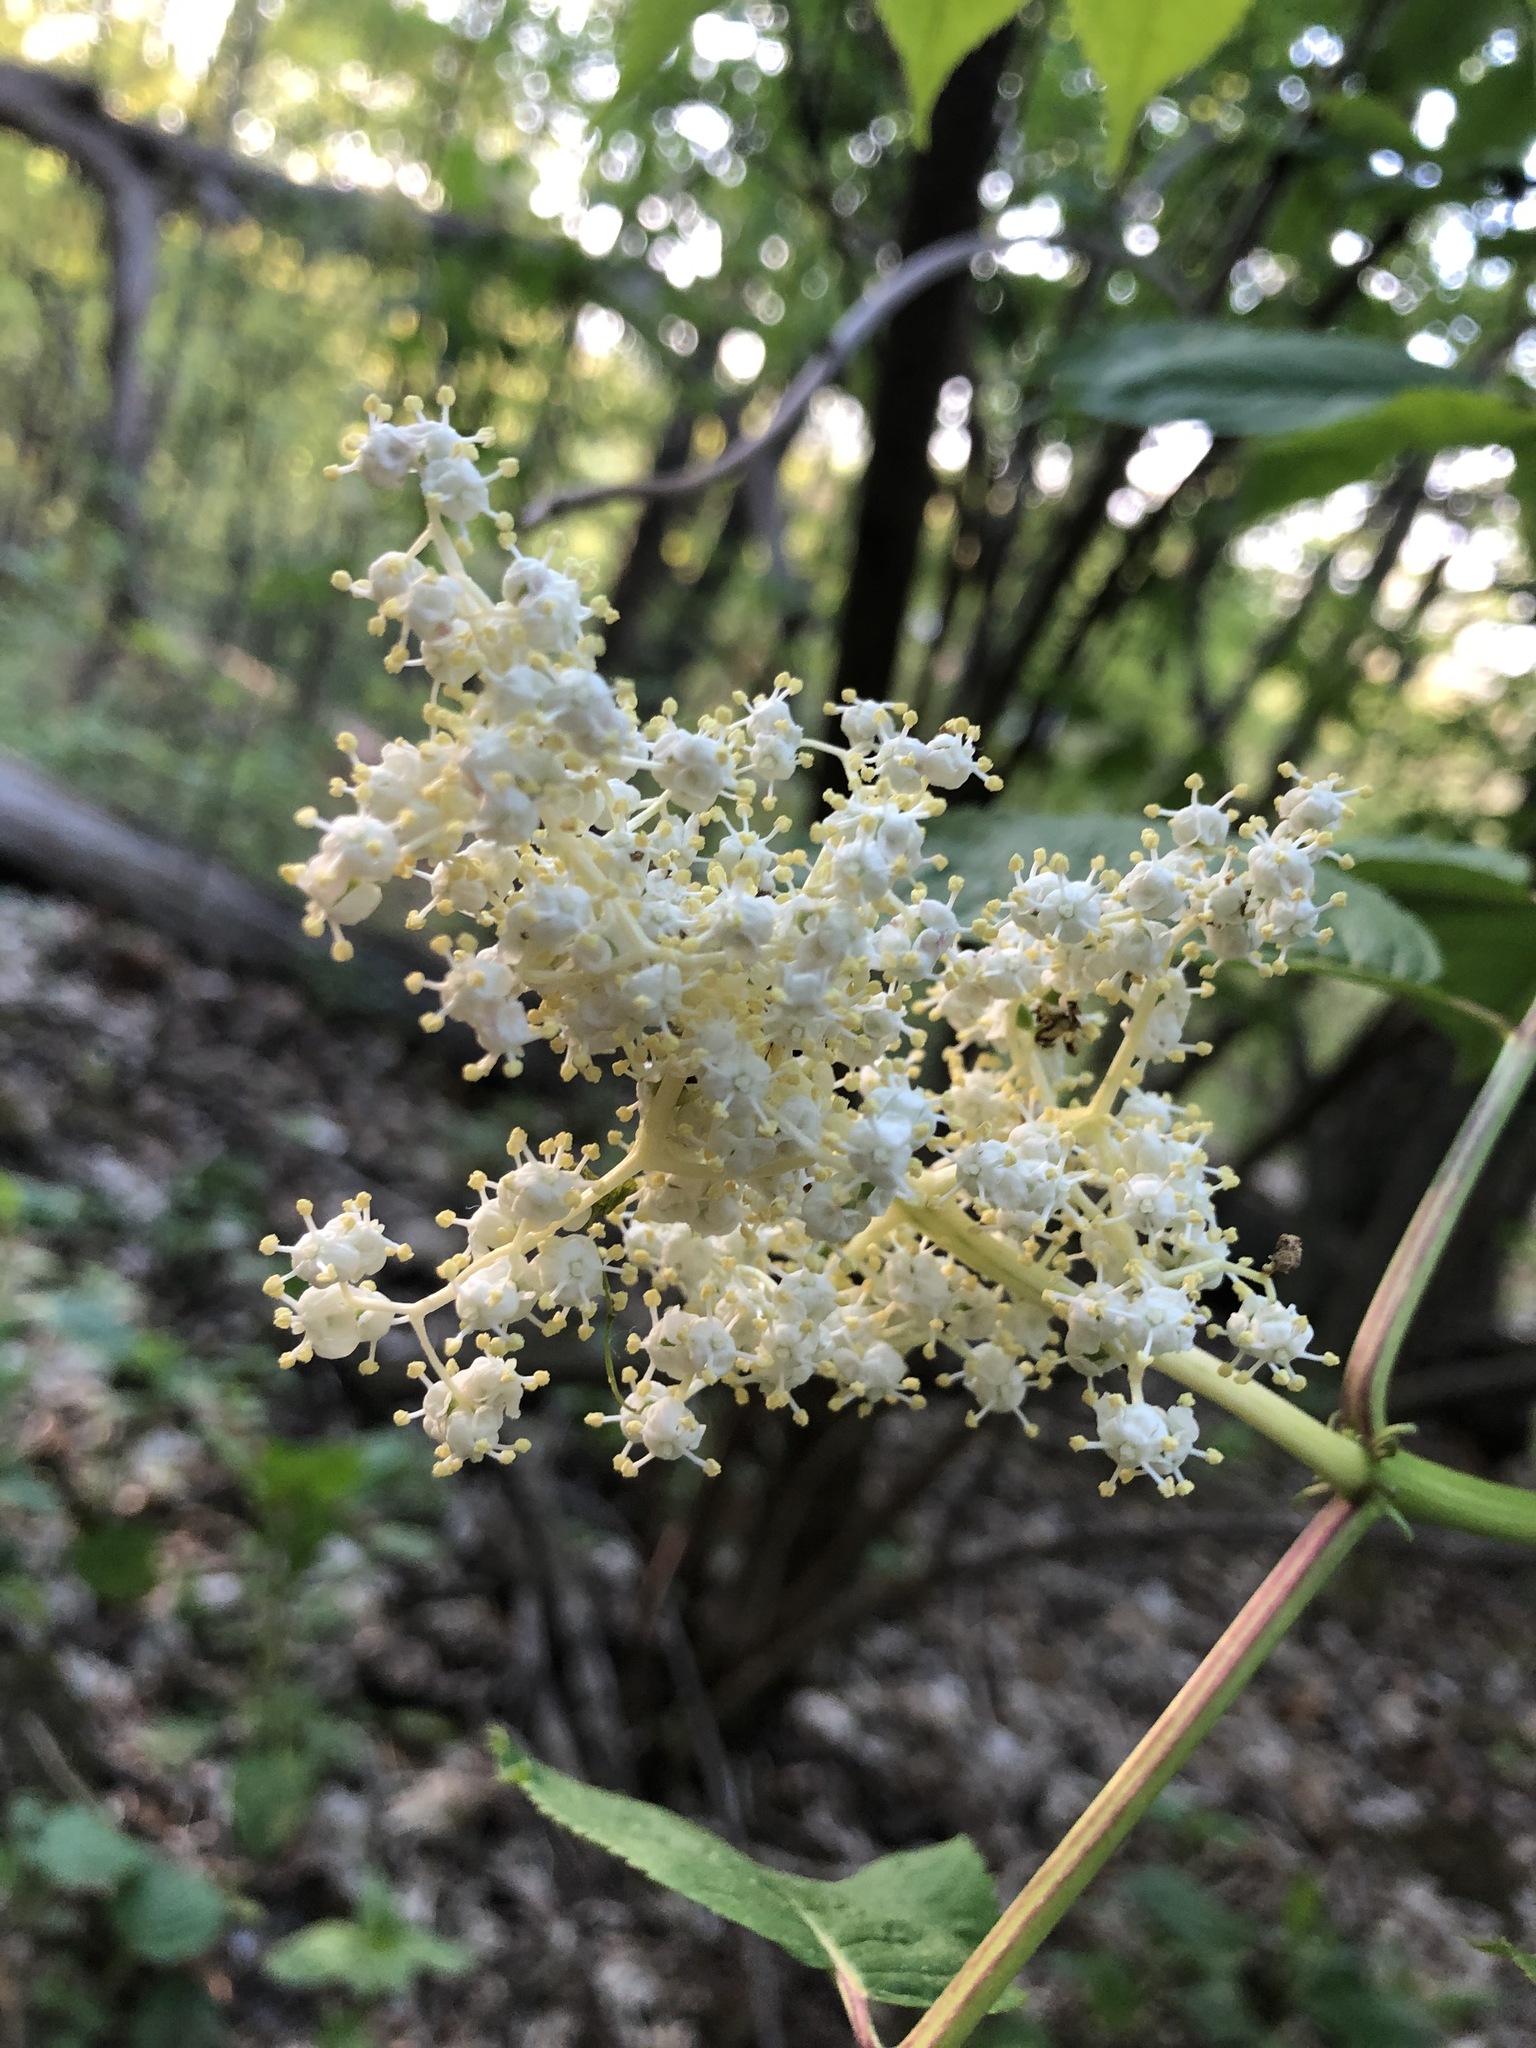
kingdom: Plantae
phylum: Tracheophyta
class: Magnoliopsida
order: Dipsacales
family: Viburnaceae
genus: Sambucus
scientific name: Sambucus racemosa
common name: Red-berried elder
